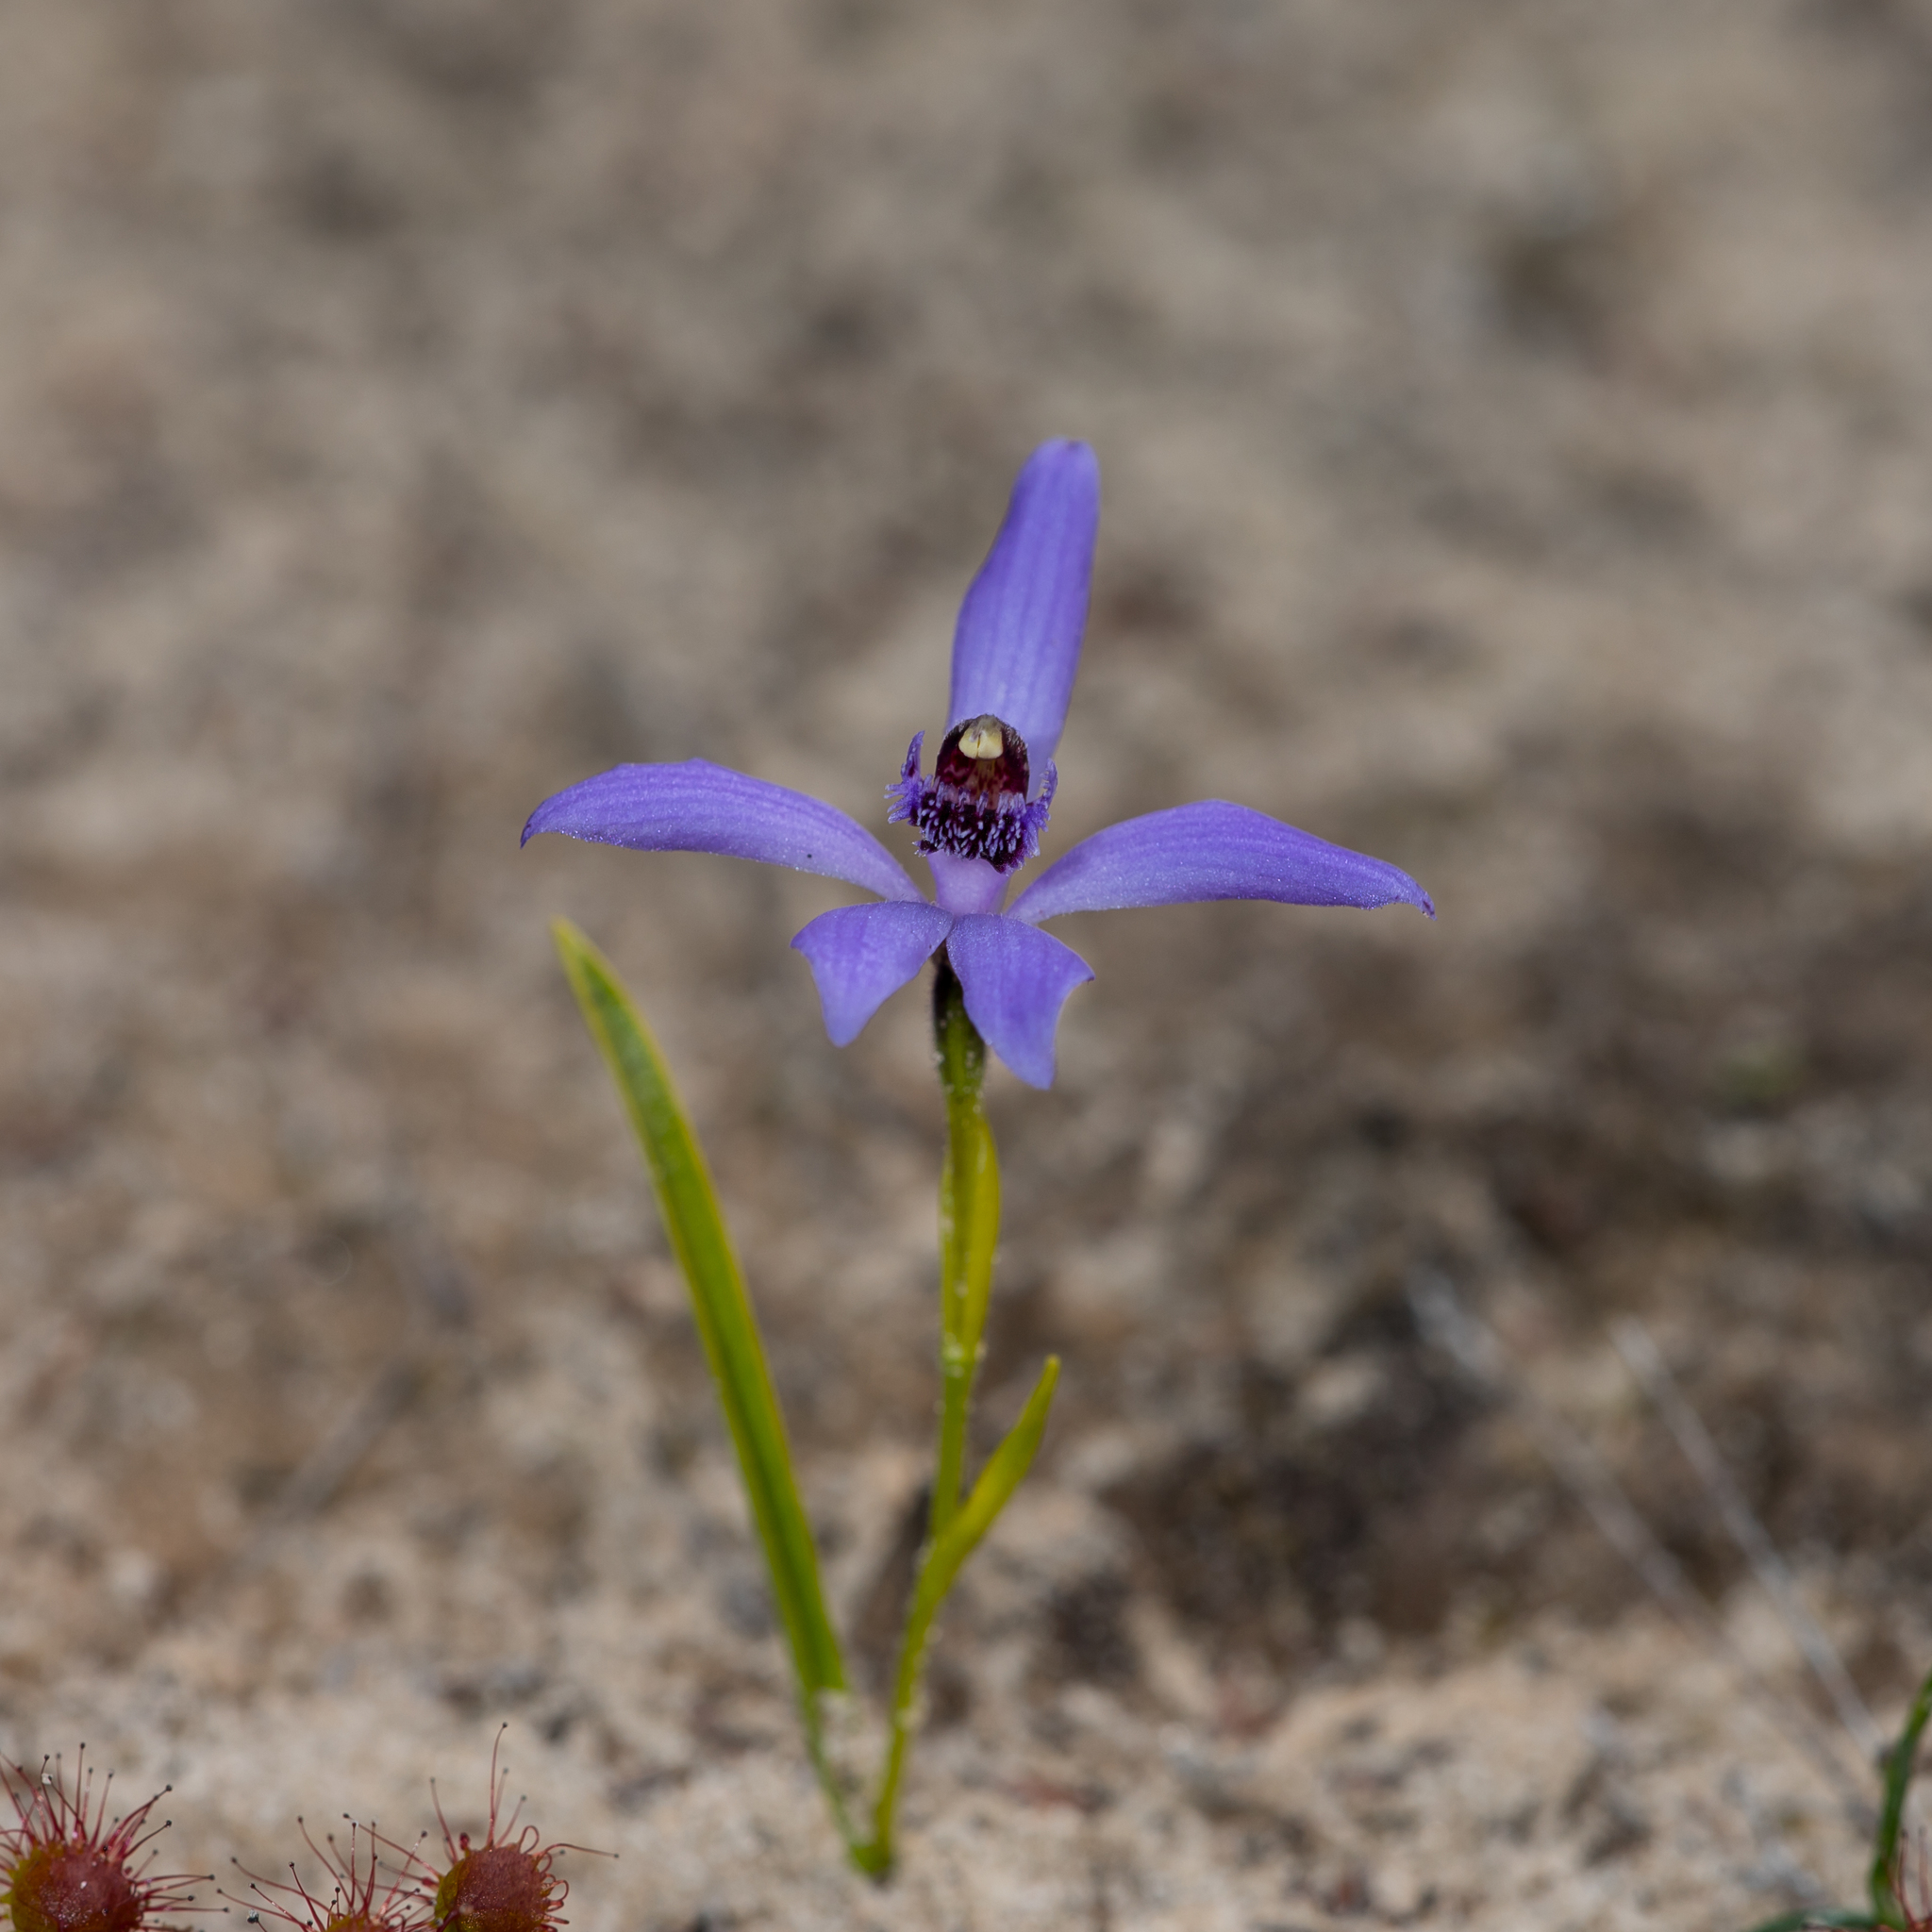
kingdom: Plantae
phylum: Tracheophyta
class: Liliopsida
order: Asparagales
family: Orchidaceae
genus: Pheladenia
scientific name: Pheladenia deformis
